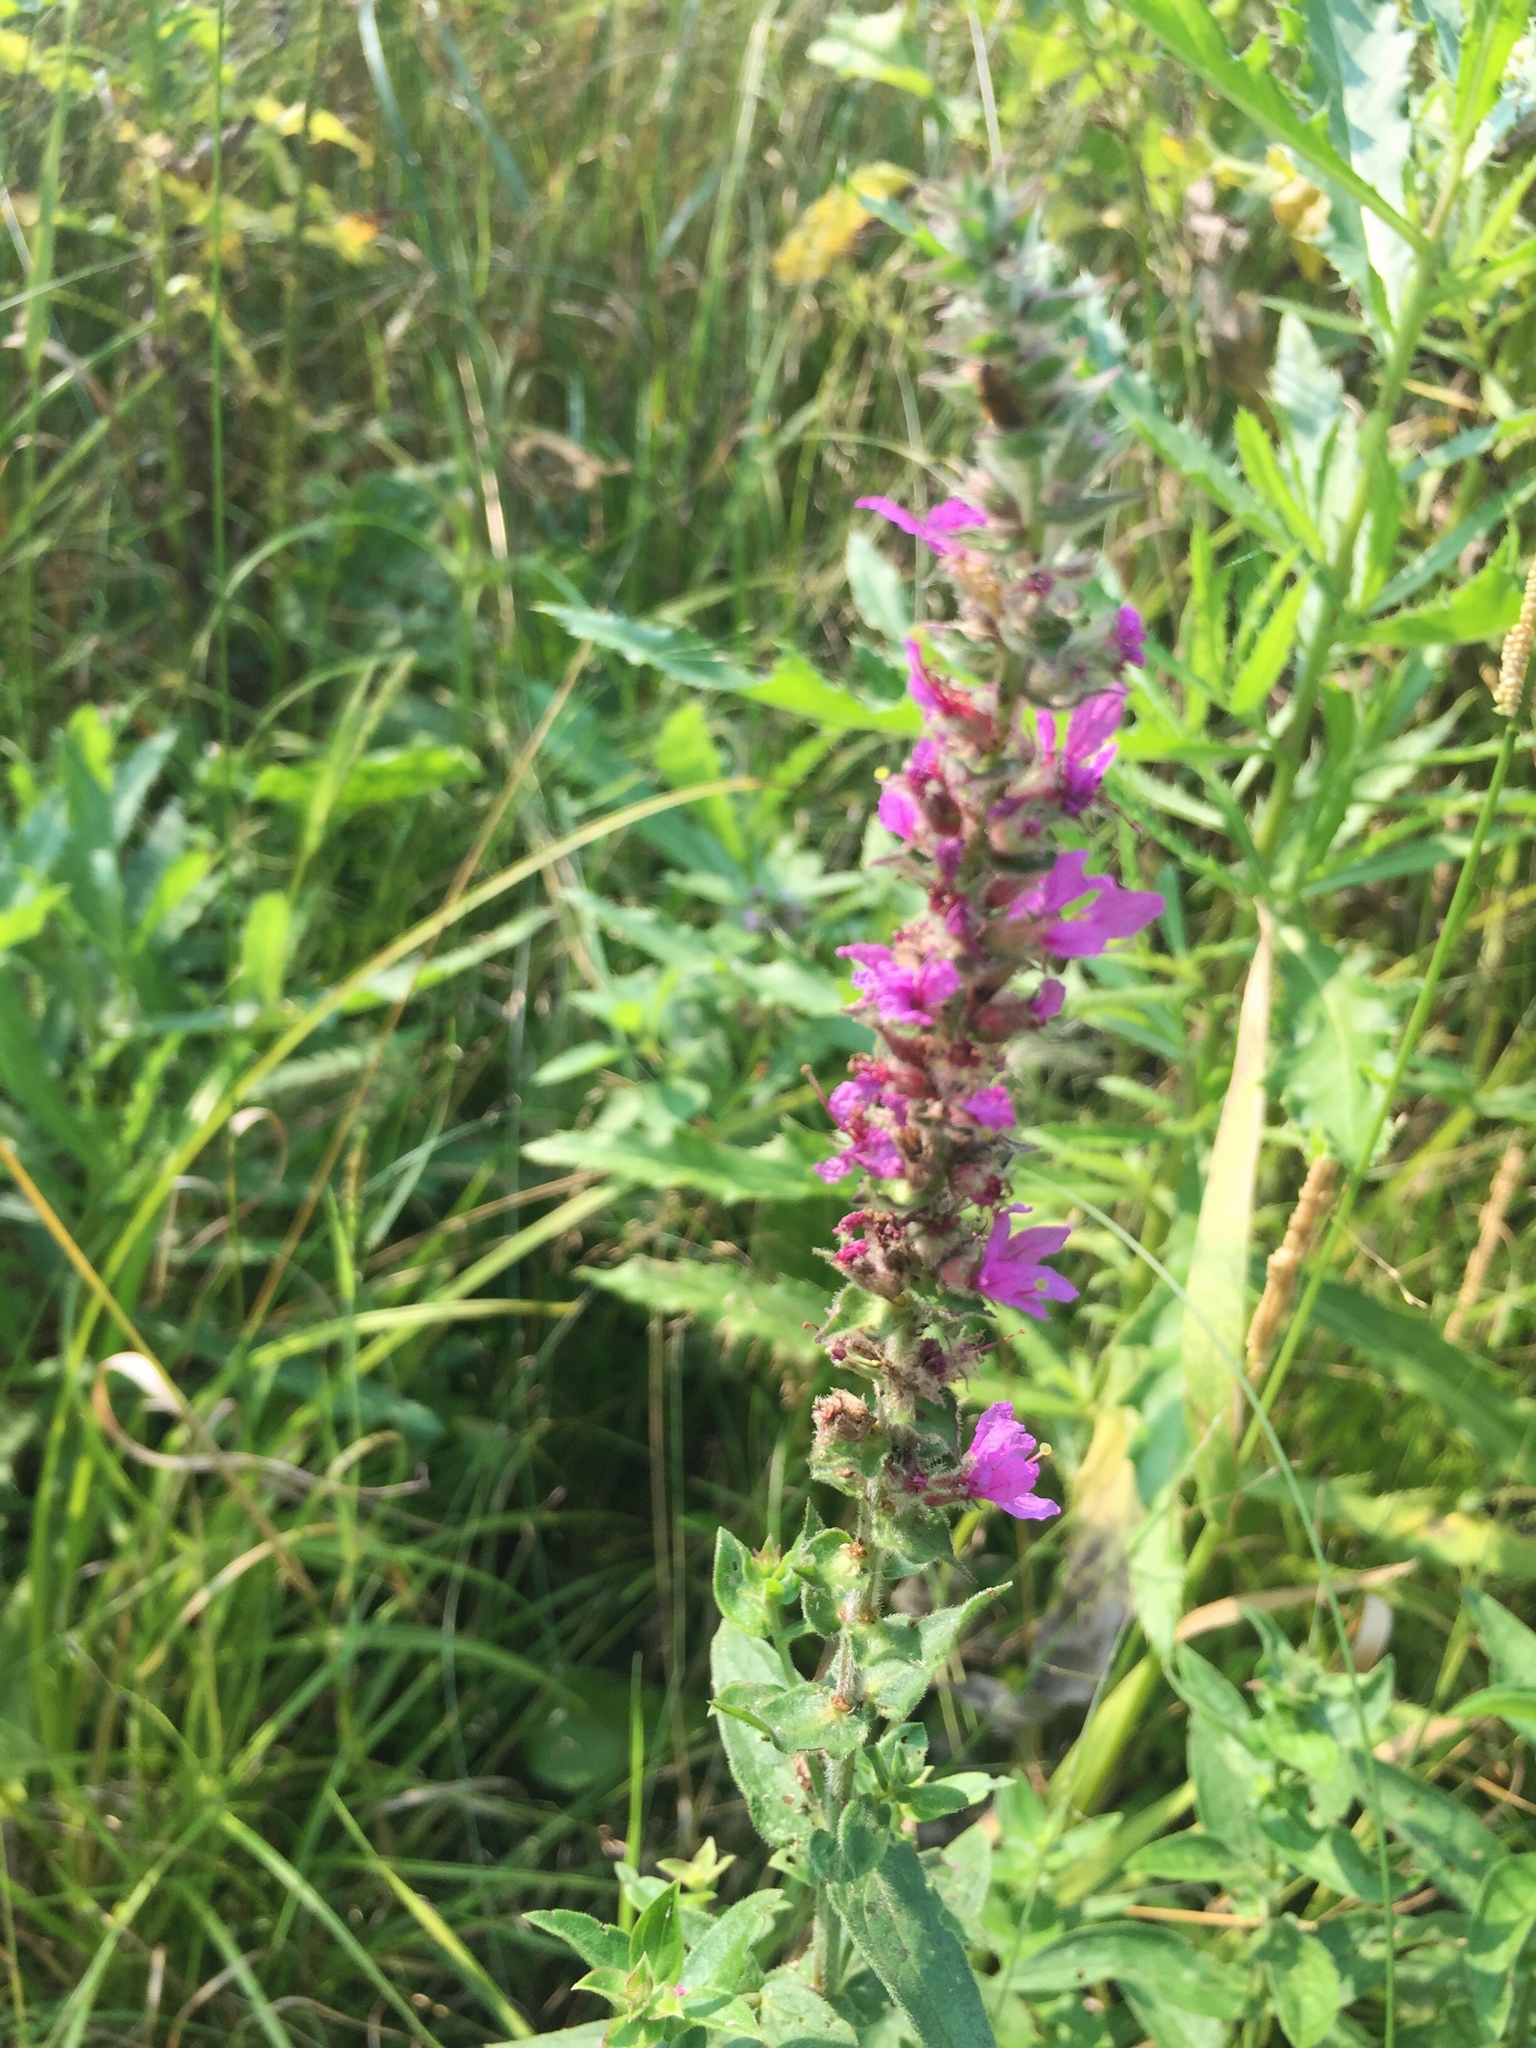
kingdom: Plantae
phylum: Tracheophyta
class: Magnoliopsida
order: Myrtales
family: Lythraceae
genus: Lythrum
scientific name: Lythrum salicaria
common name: Purple loosestrife
